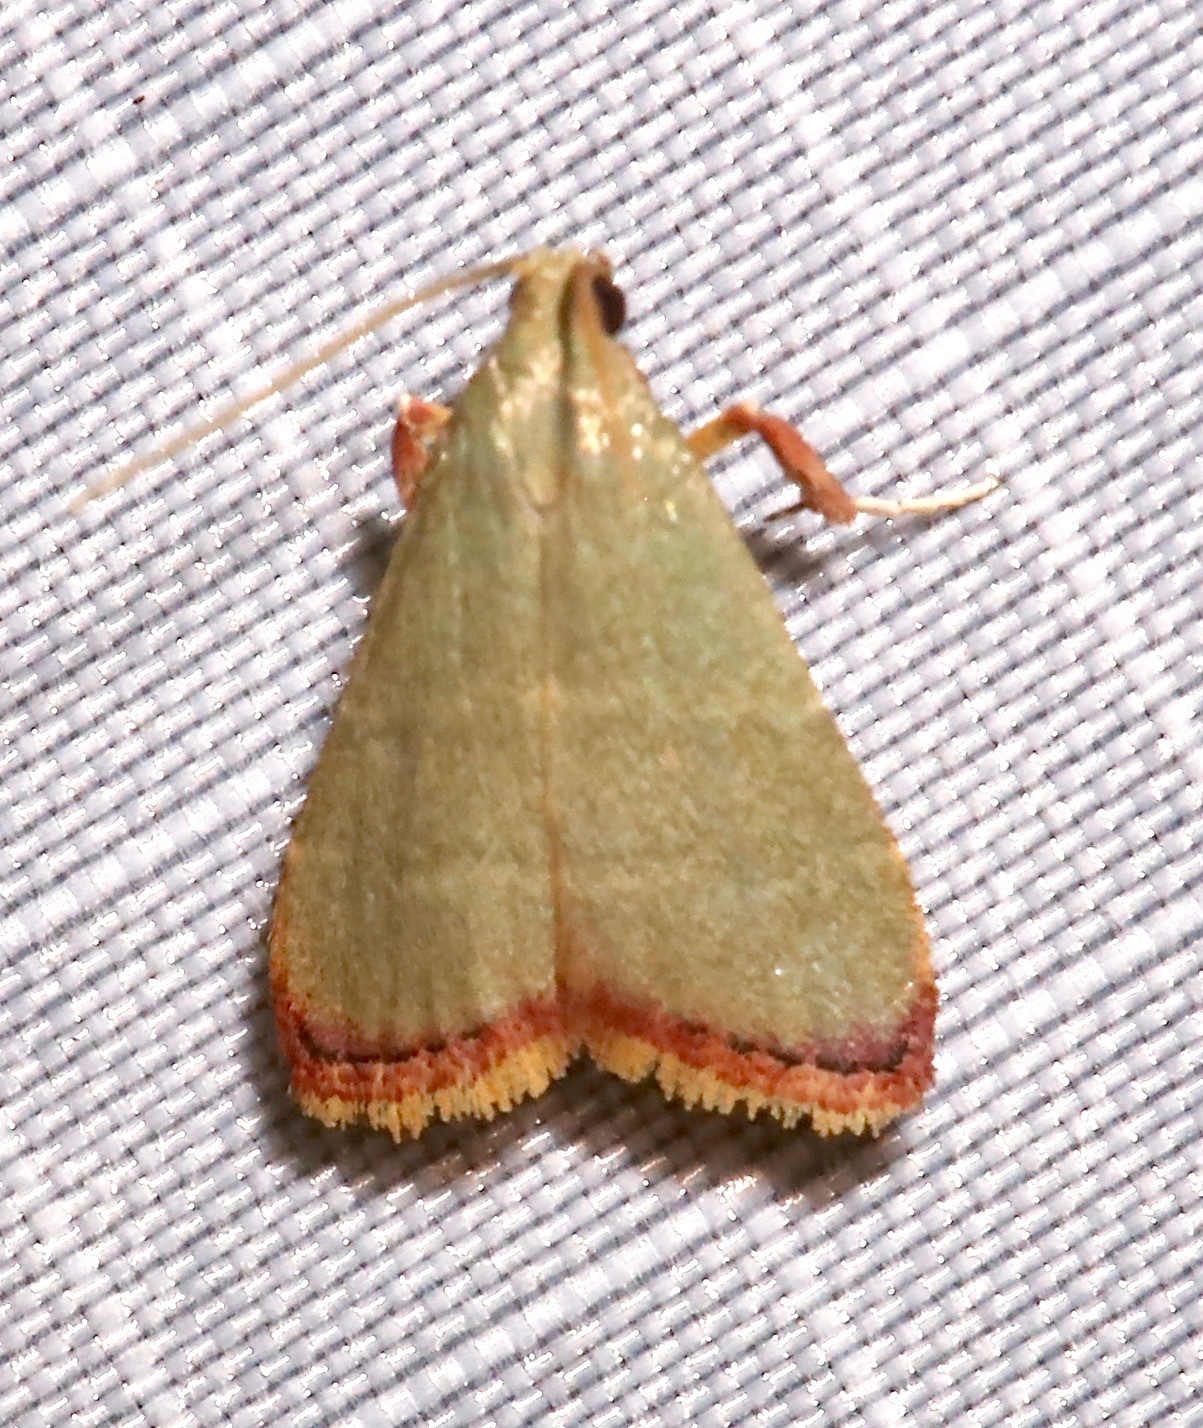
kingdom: Animalia
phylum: Arthropoda
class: Insecta
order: Lepidoptera
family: Pyralidae
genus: Arta
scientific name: Arta olivalis
